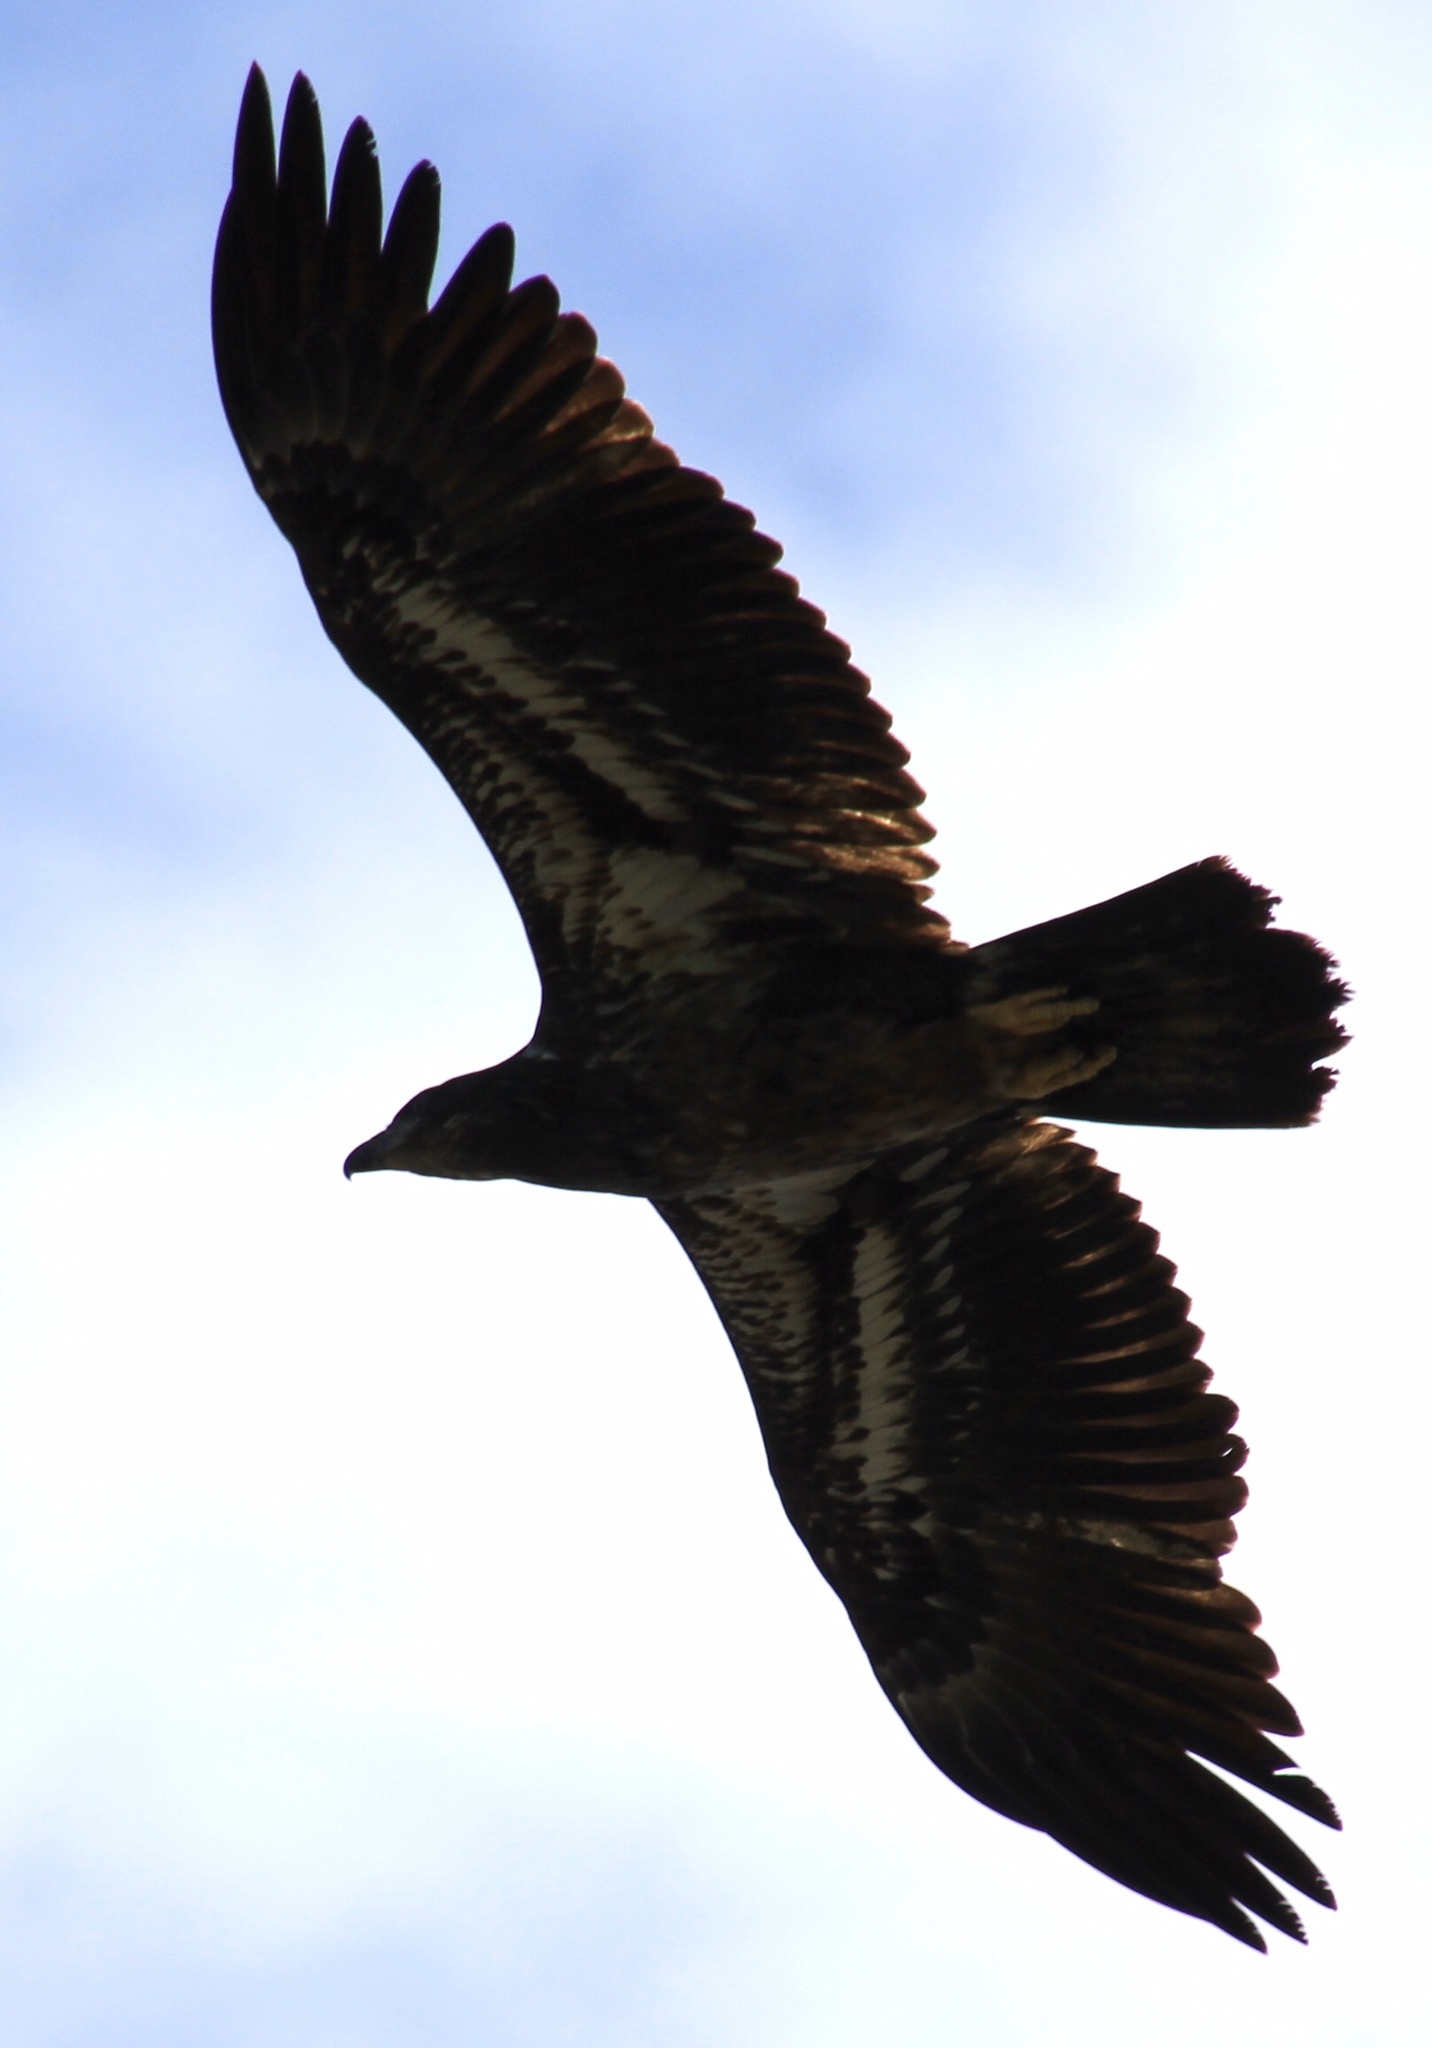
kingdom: Animalia
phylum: Chordata
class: Aves
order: Accipitriformes
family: Accipitridae
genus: Haliaeetus
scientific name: Haliaeetus leucocephalus
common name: Bald eagle
